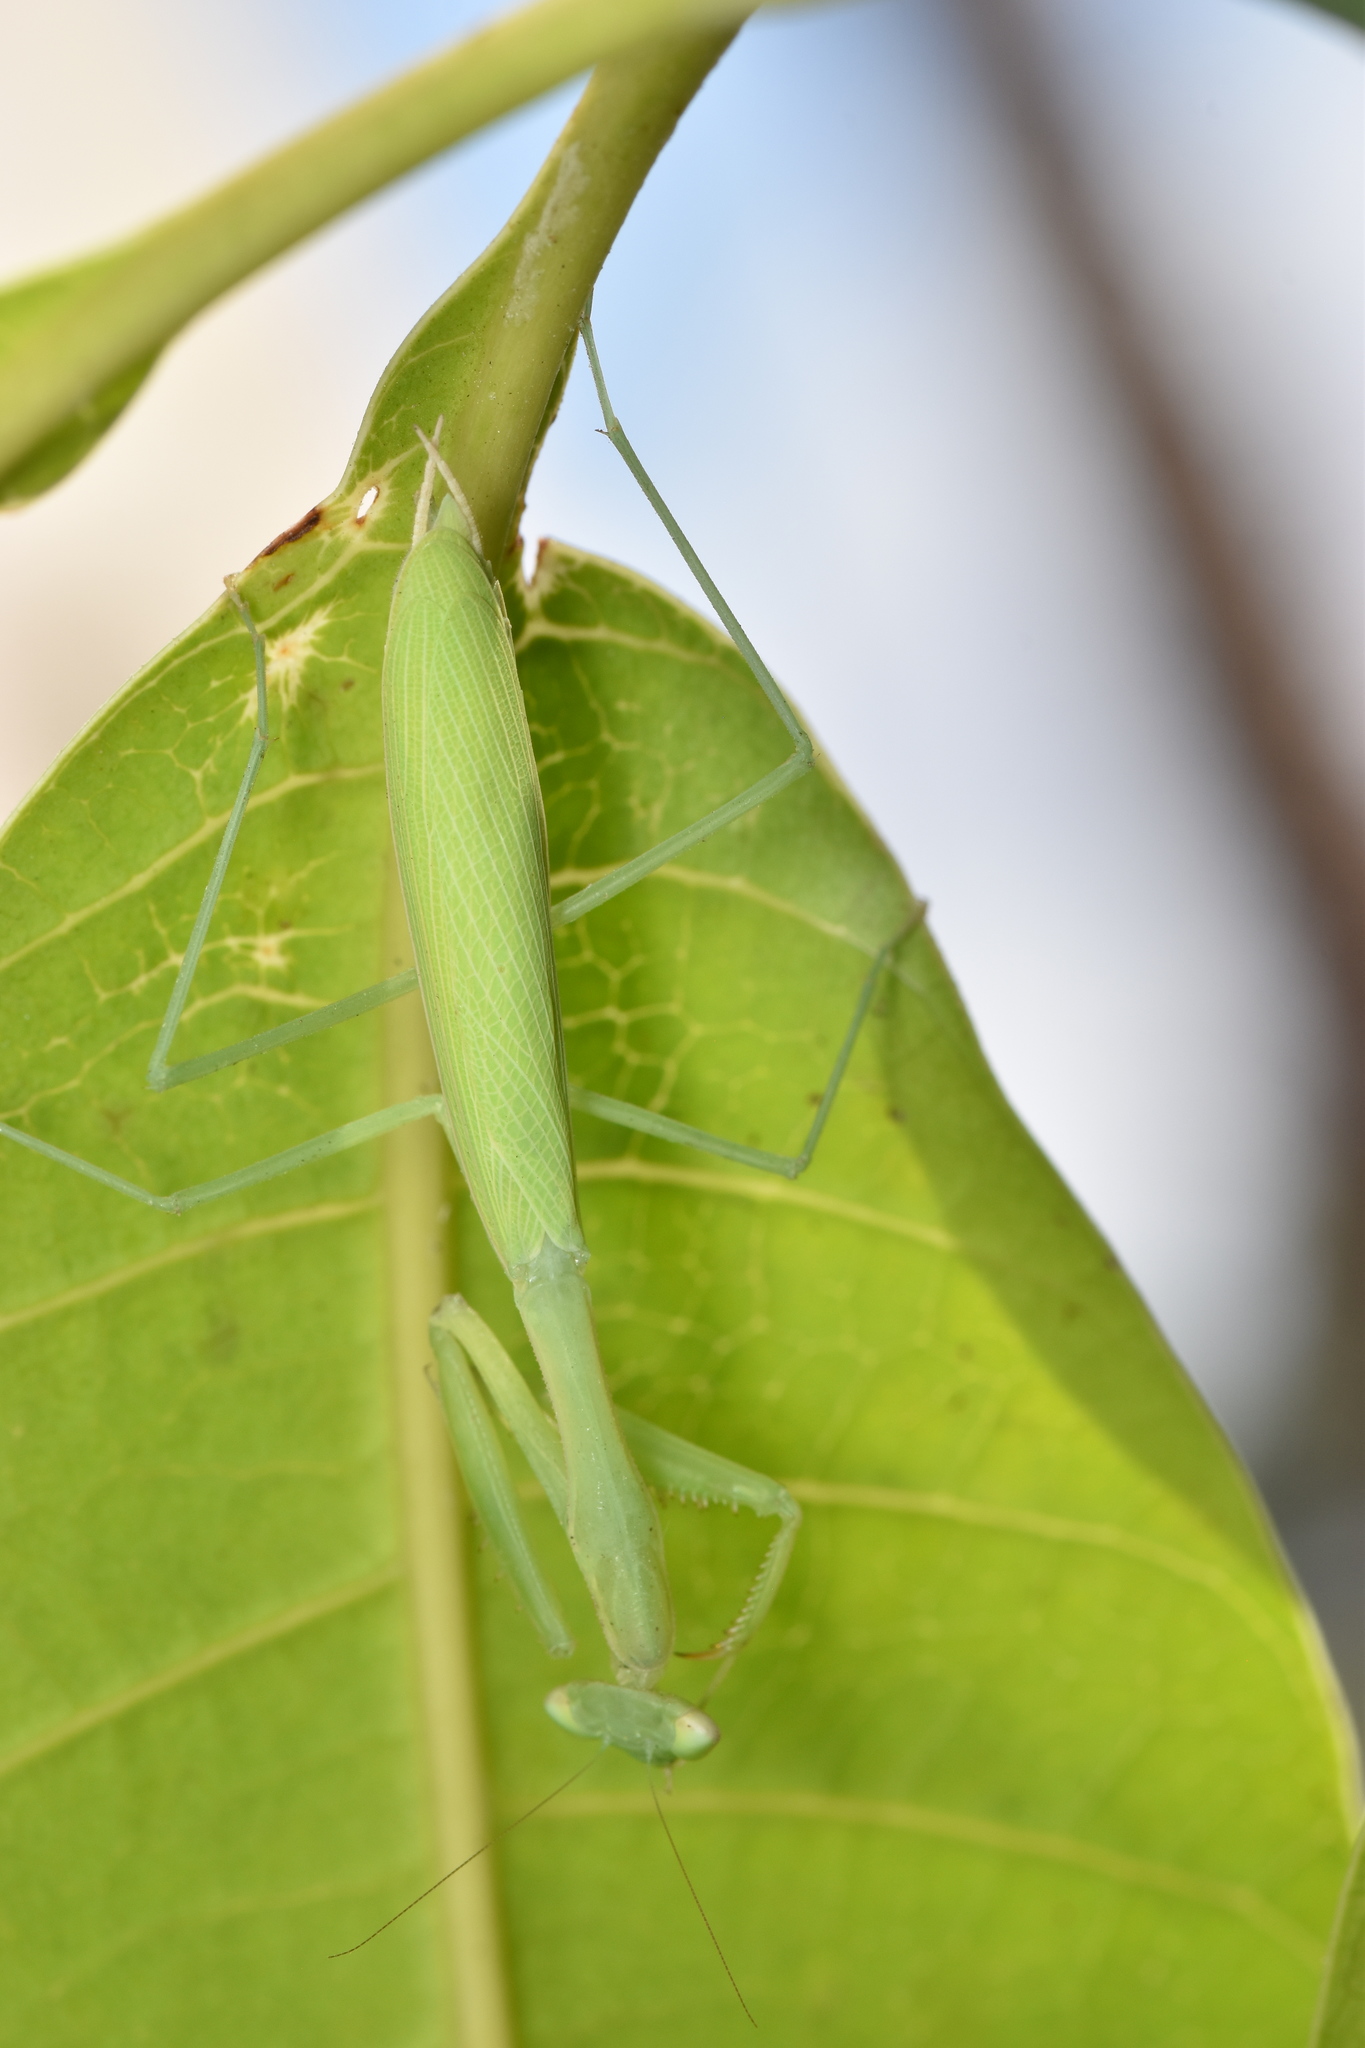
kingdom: Animalia
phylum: Arthropoda
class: Insecta
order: Mantodea
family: Miomantidae
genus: Miomantis
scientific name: Miomantis paykullii
